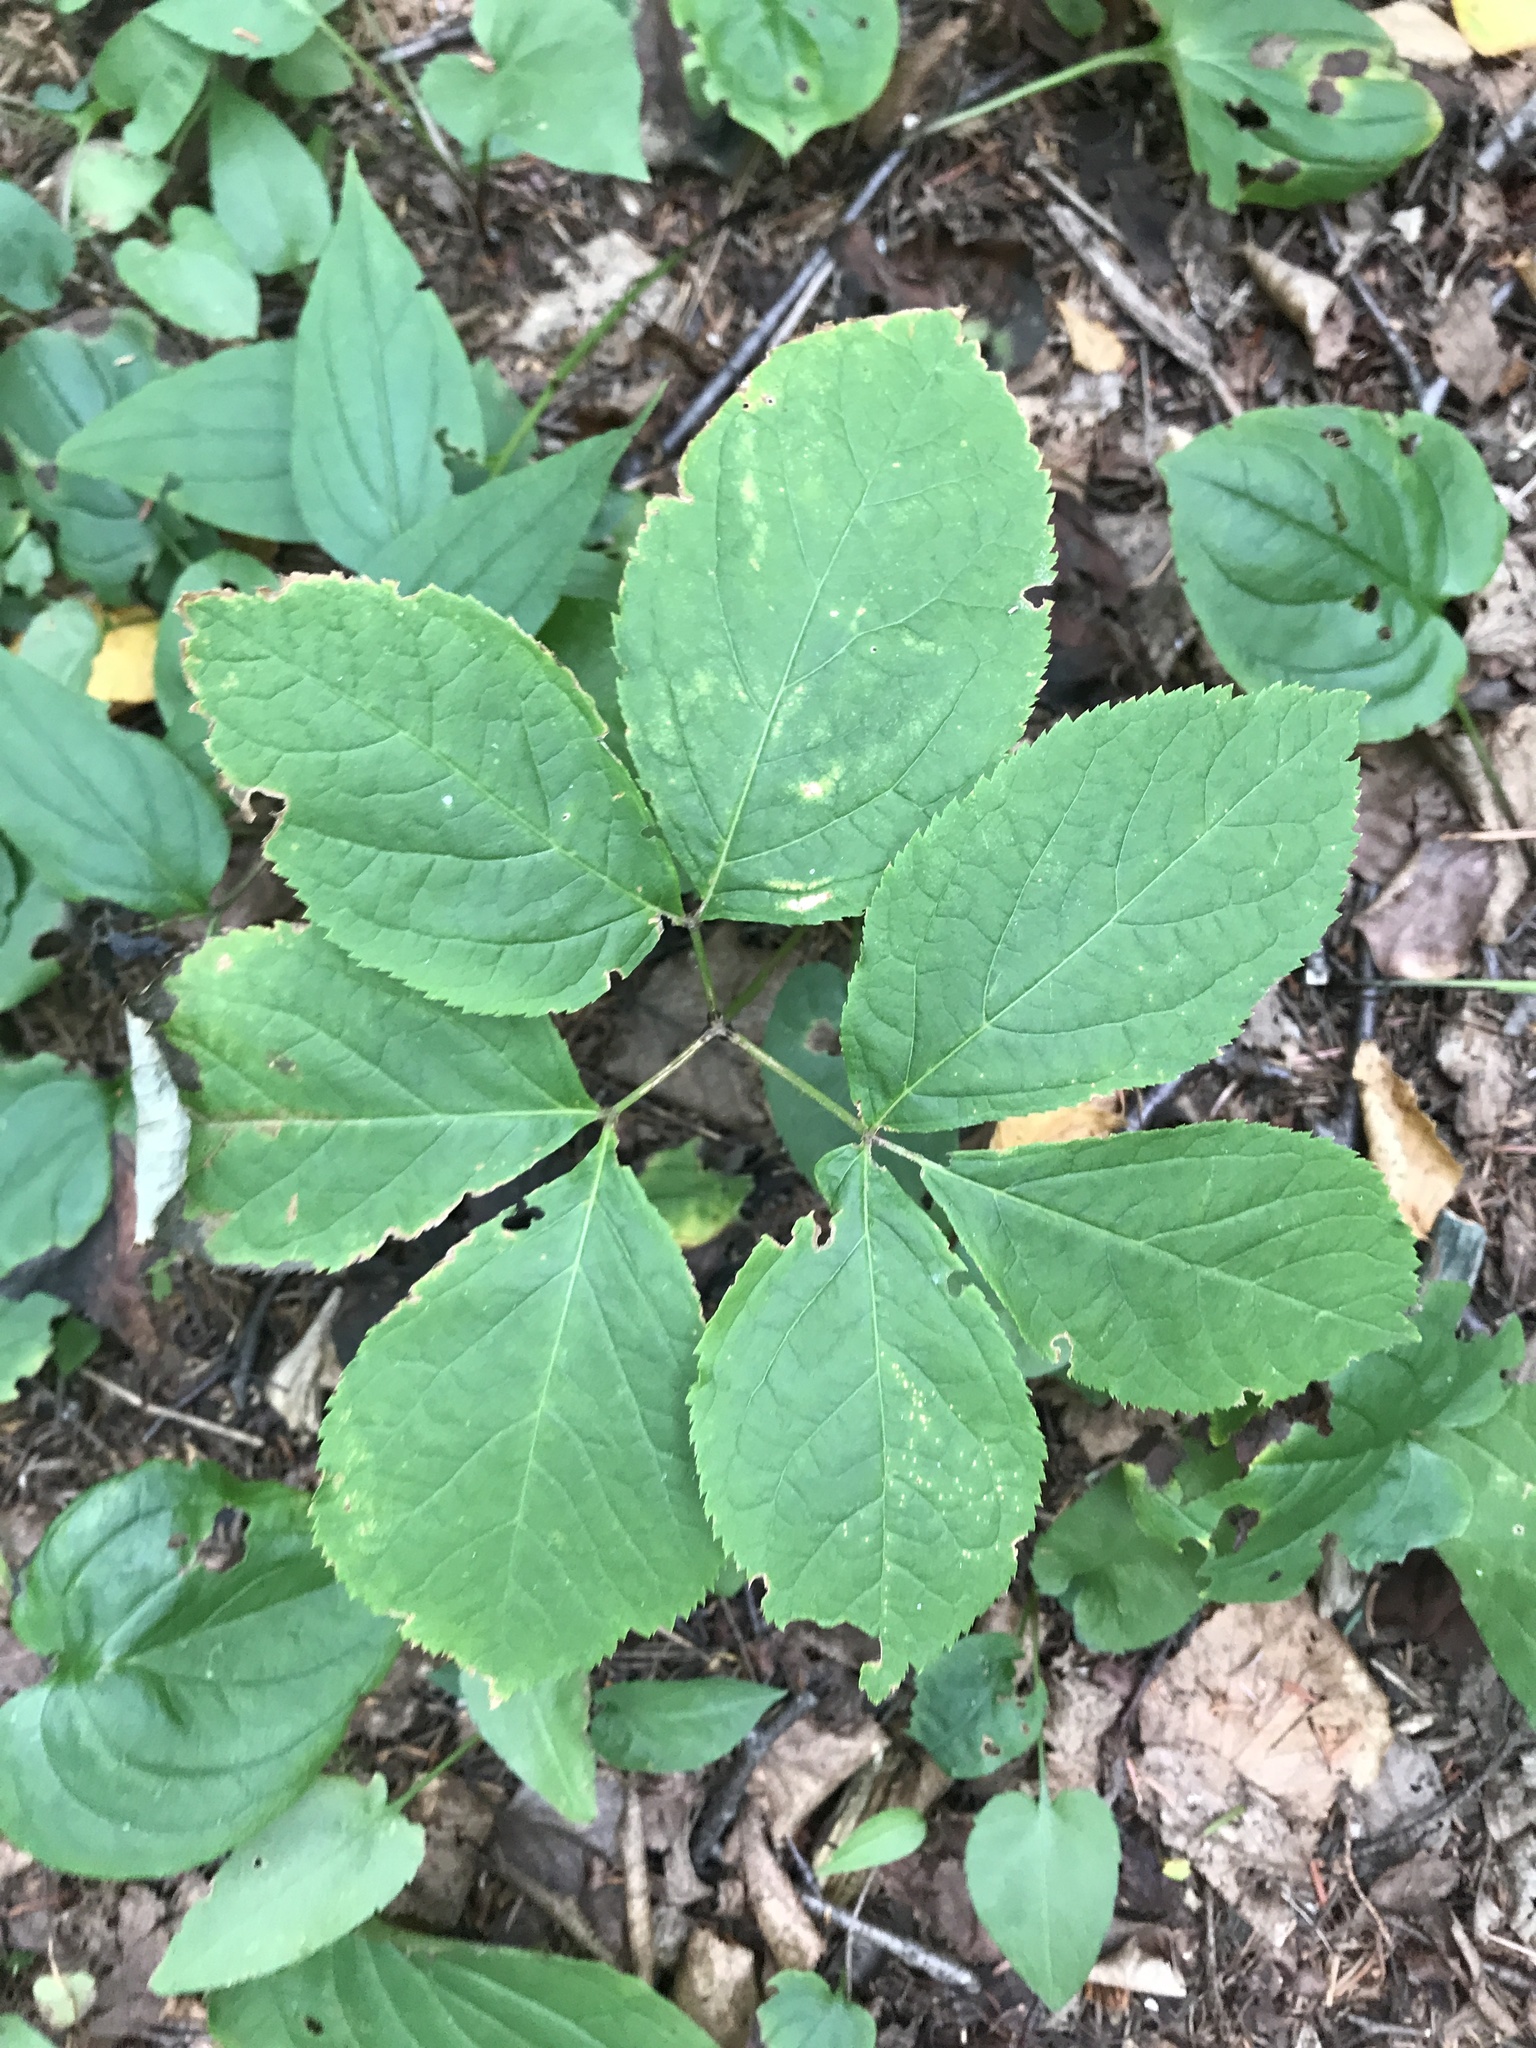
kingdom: Plantae
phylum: Tracheophyta
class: Magnoliopsida
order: Apiales
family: Araliaceae
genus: Aralia
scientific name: Aralia nudicaulis
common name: Wild sarsaparilla
